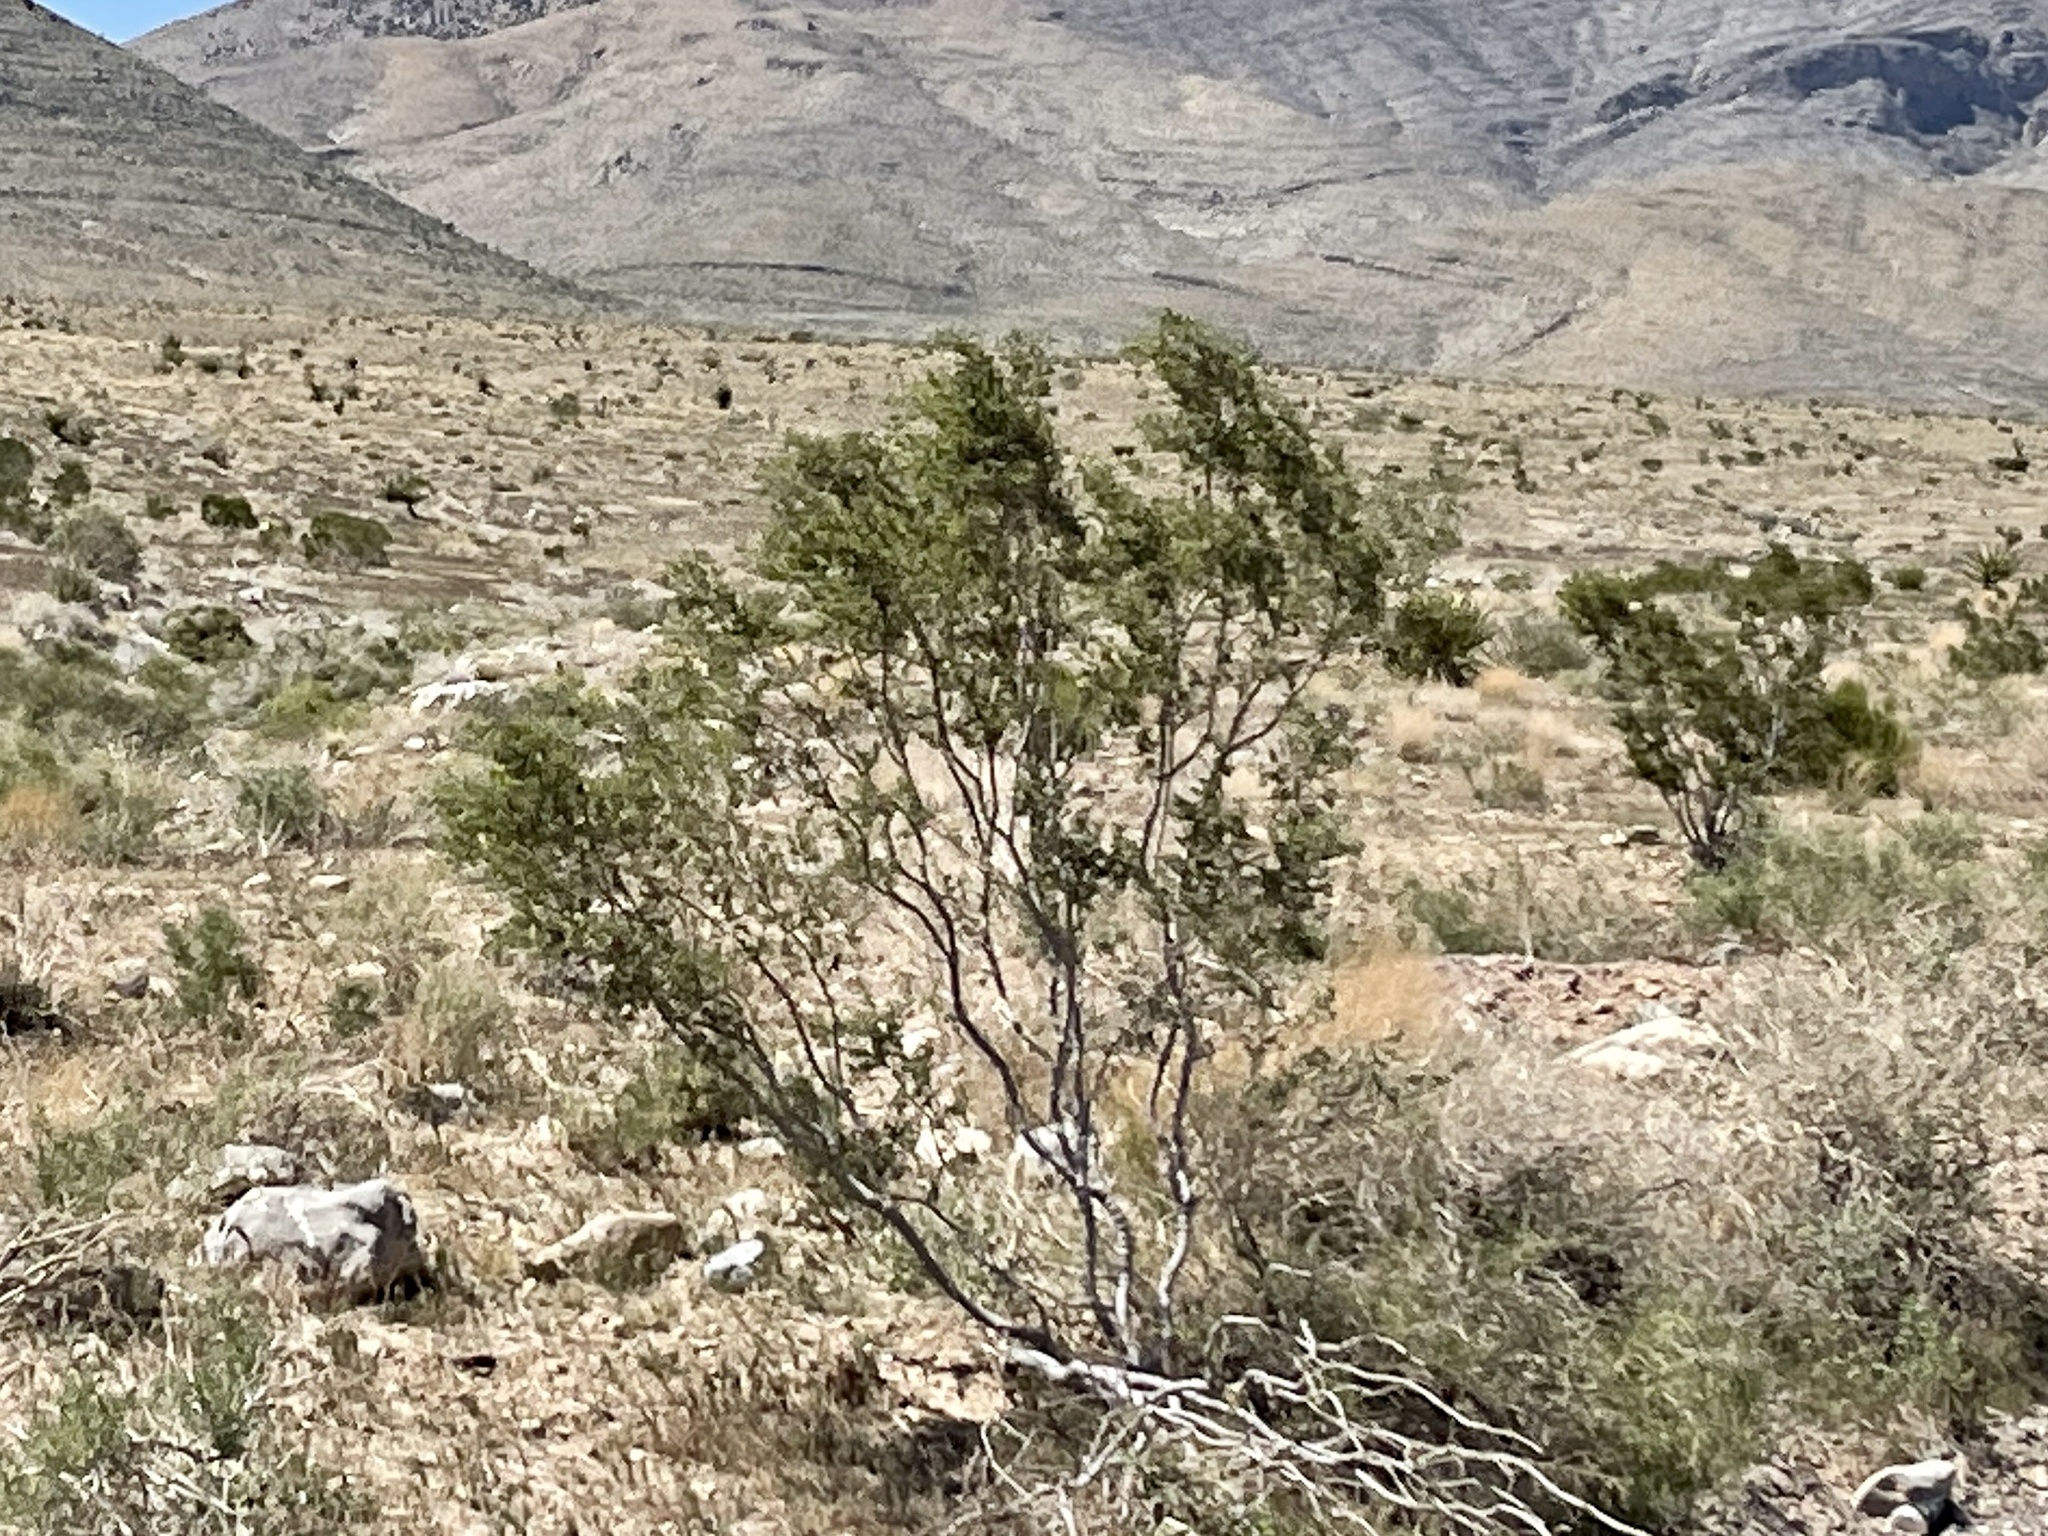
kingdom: Plantae
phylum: Tracheophyta
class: Magnoliopsida
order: Zygophyllales
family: Zygophyllaceae
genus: Larrea
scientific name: Larrea tridentata
